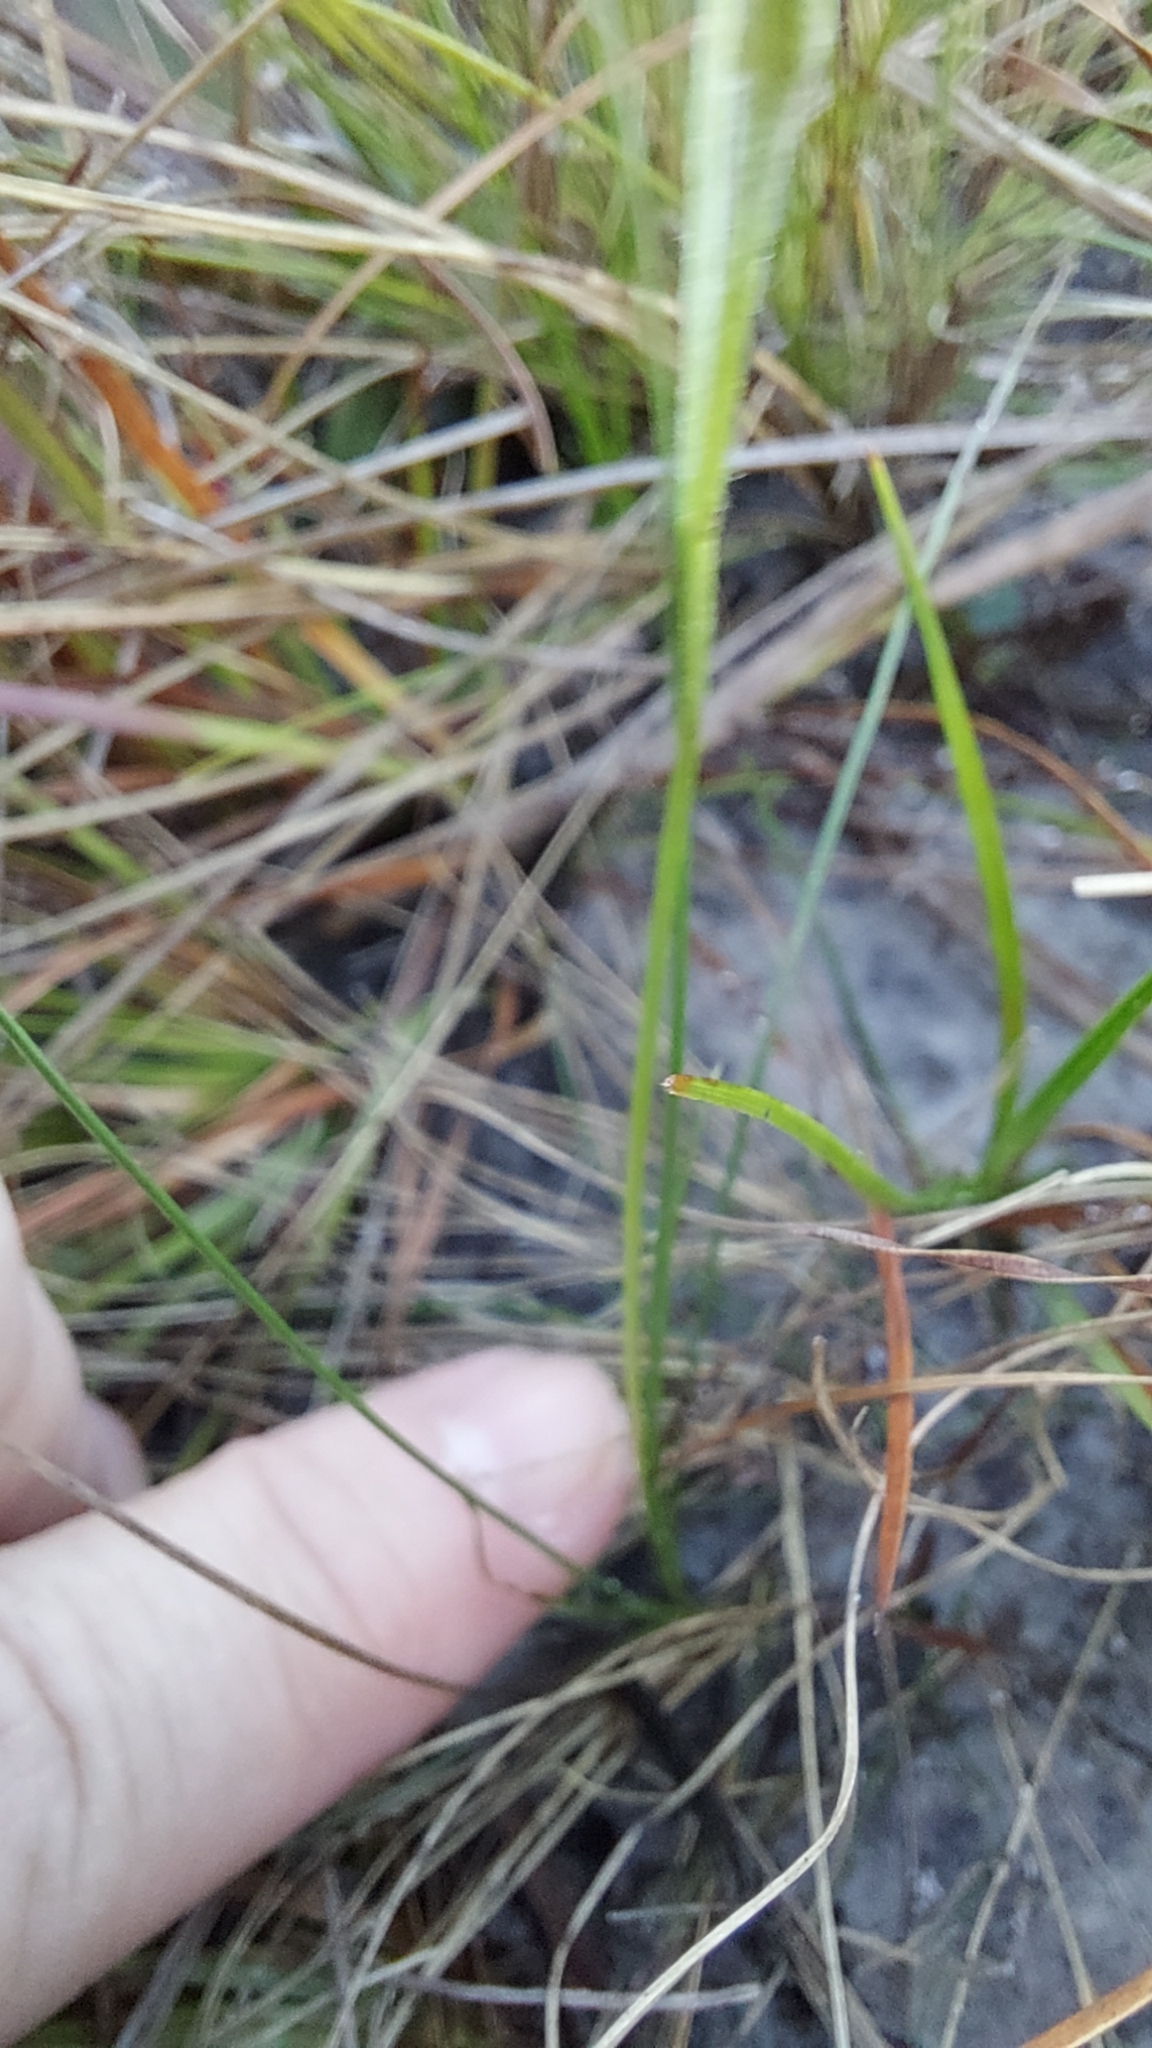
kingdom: Plantae
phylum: Tracheophyta
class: Liliopsida
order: Asparagales
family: Hypoxidaceae
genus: Hypoxis
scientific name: Hypoxis juncea
